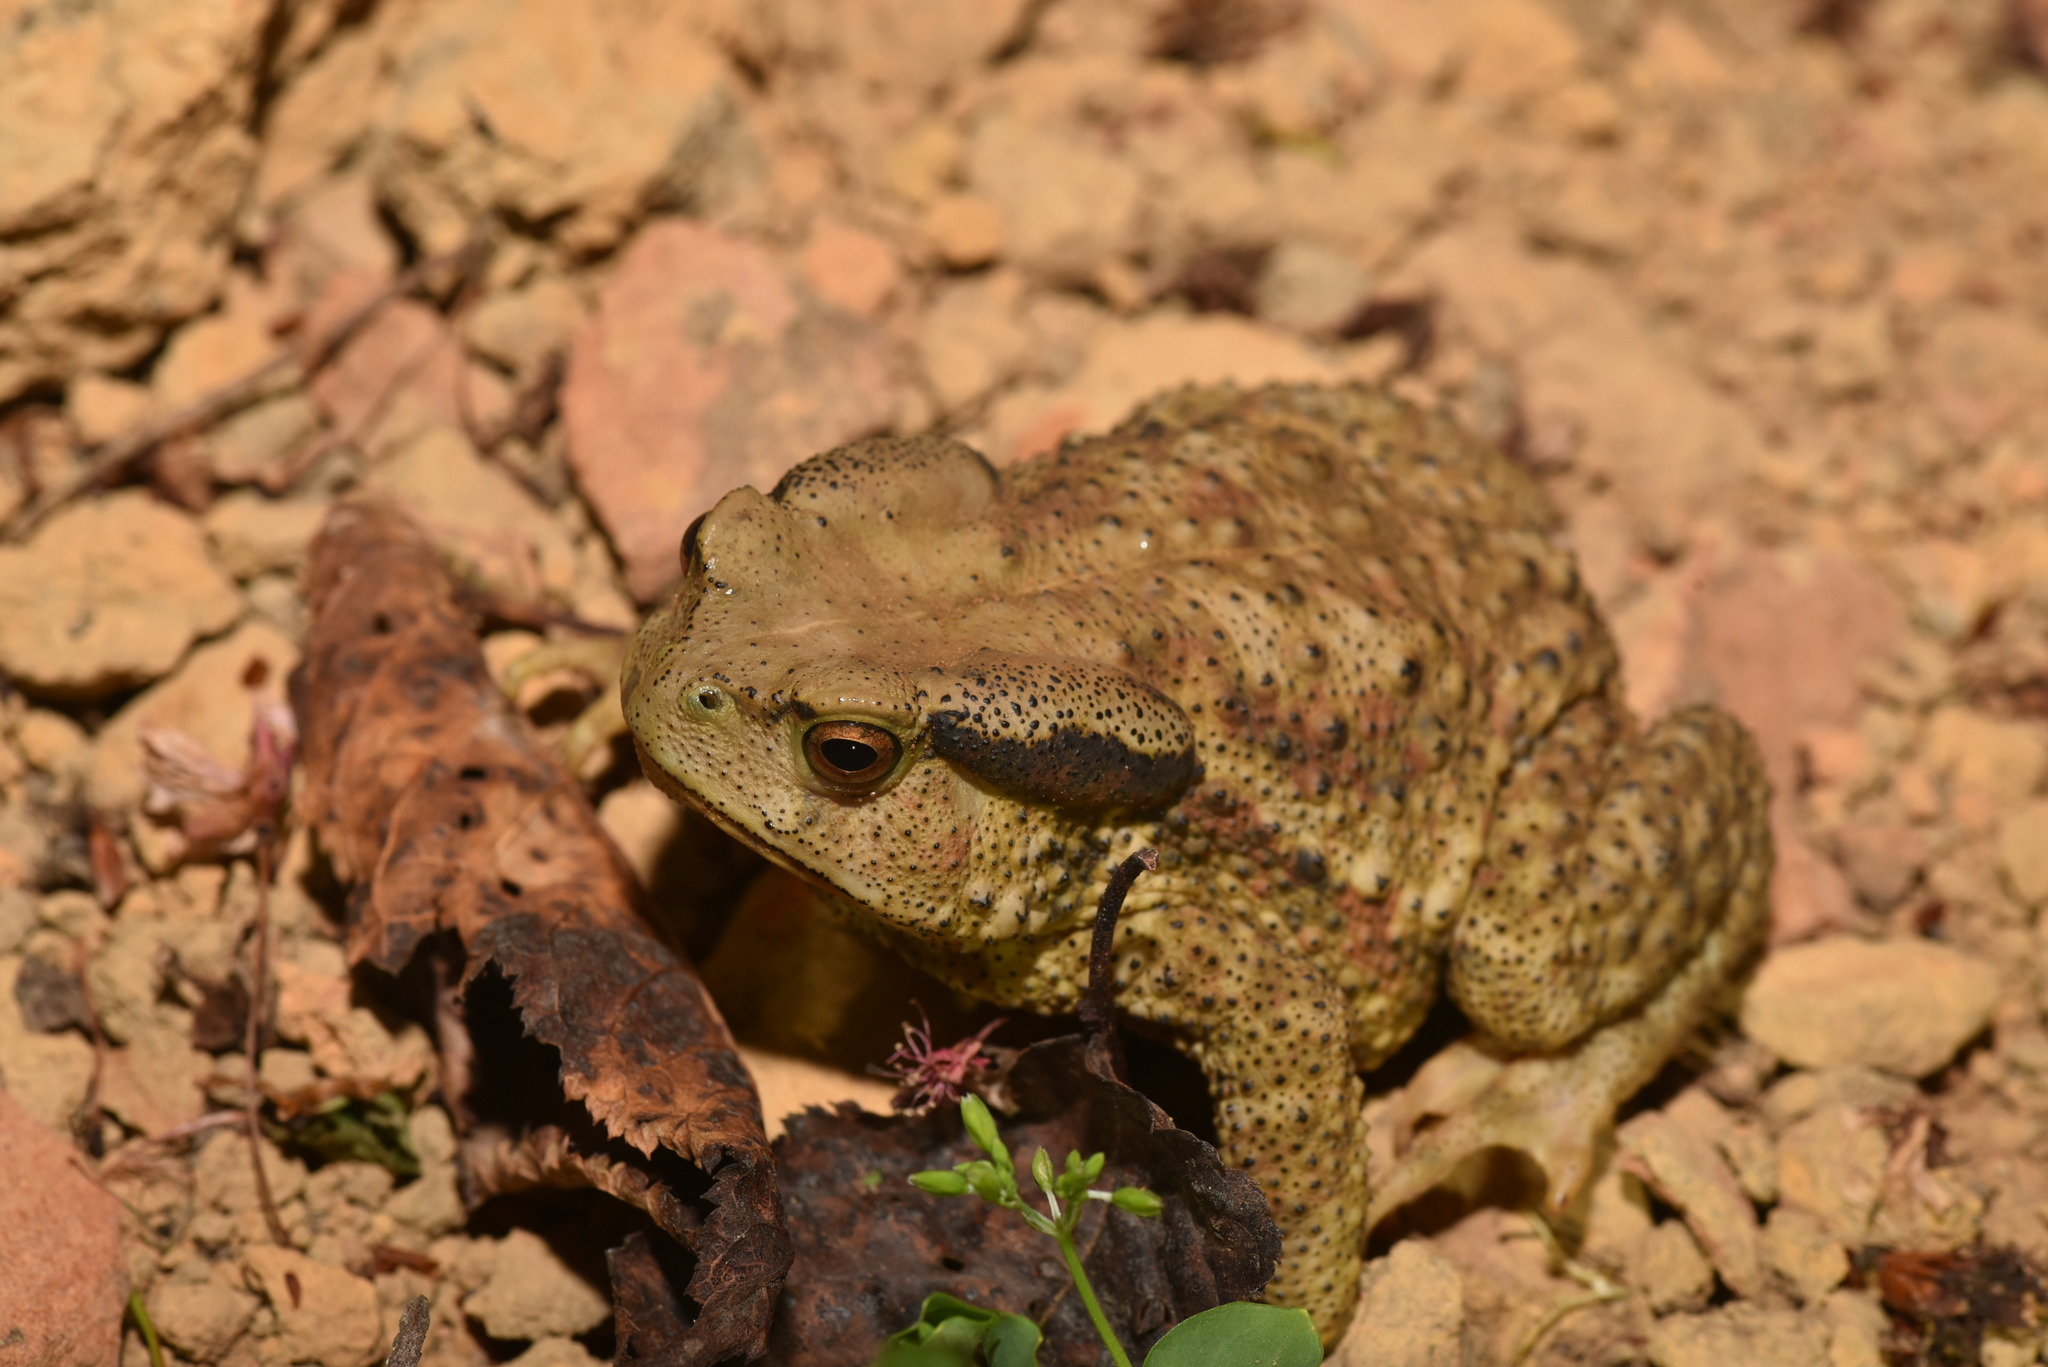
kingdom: Animalia
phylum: Chordata
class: Amphibia
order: Anura
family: Bufonidae
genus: Bufo
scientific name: Bufo bankorensis
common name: Bankor toad
